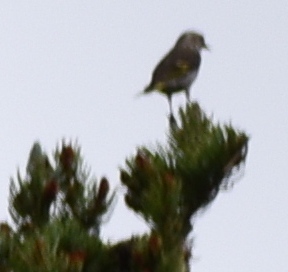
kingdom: Animalia
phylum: Chordata
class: Aves
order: Passeriformes
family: Fringillidae
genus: Spinus
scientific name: Spinus pinus
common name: Pine siskin
